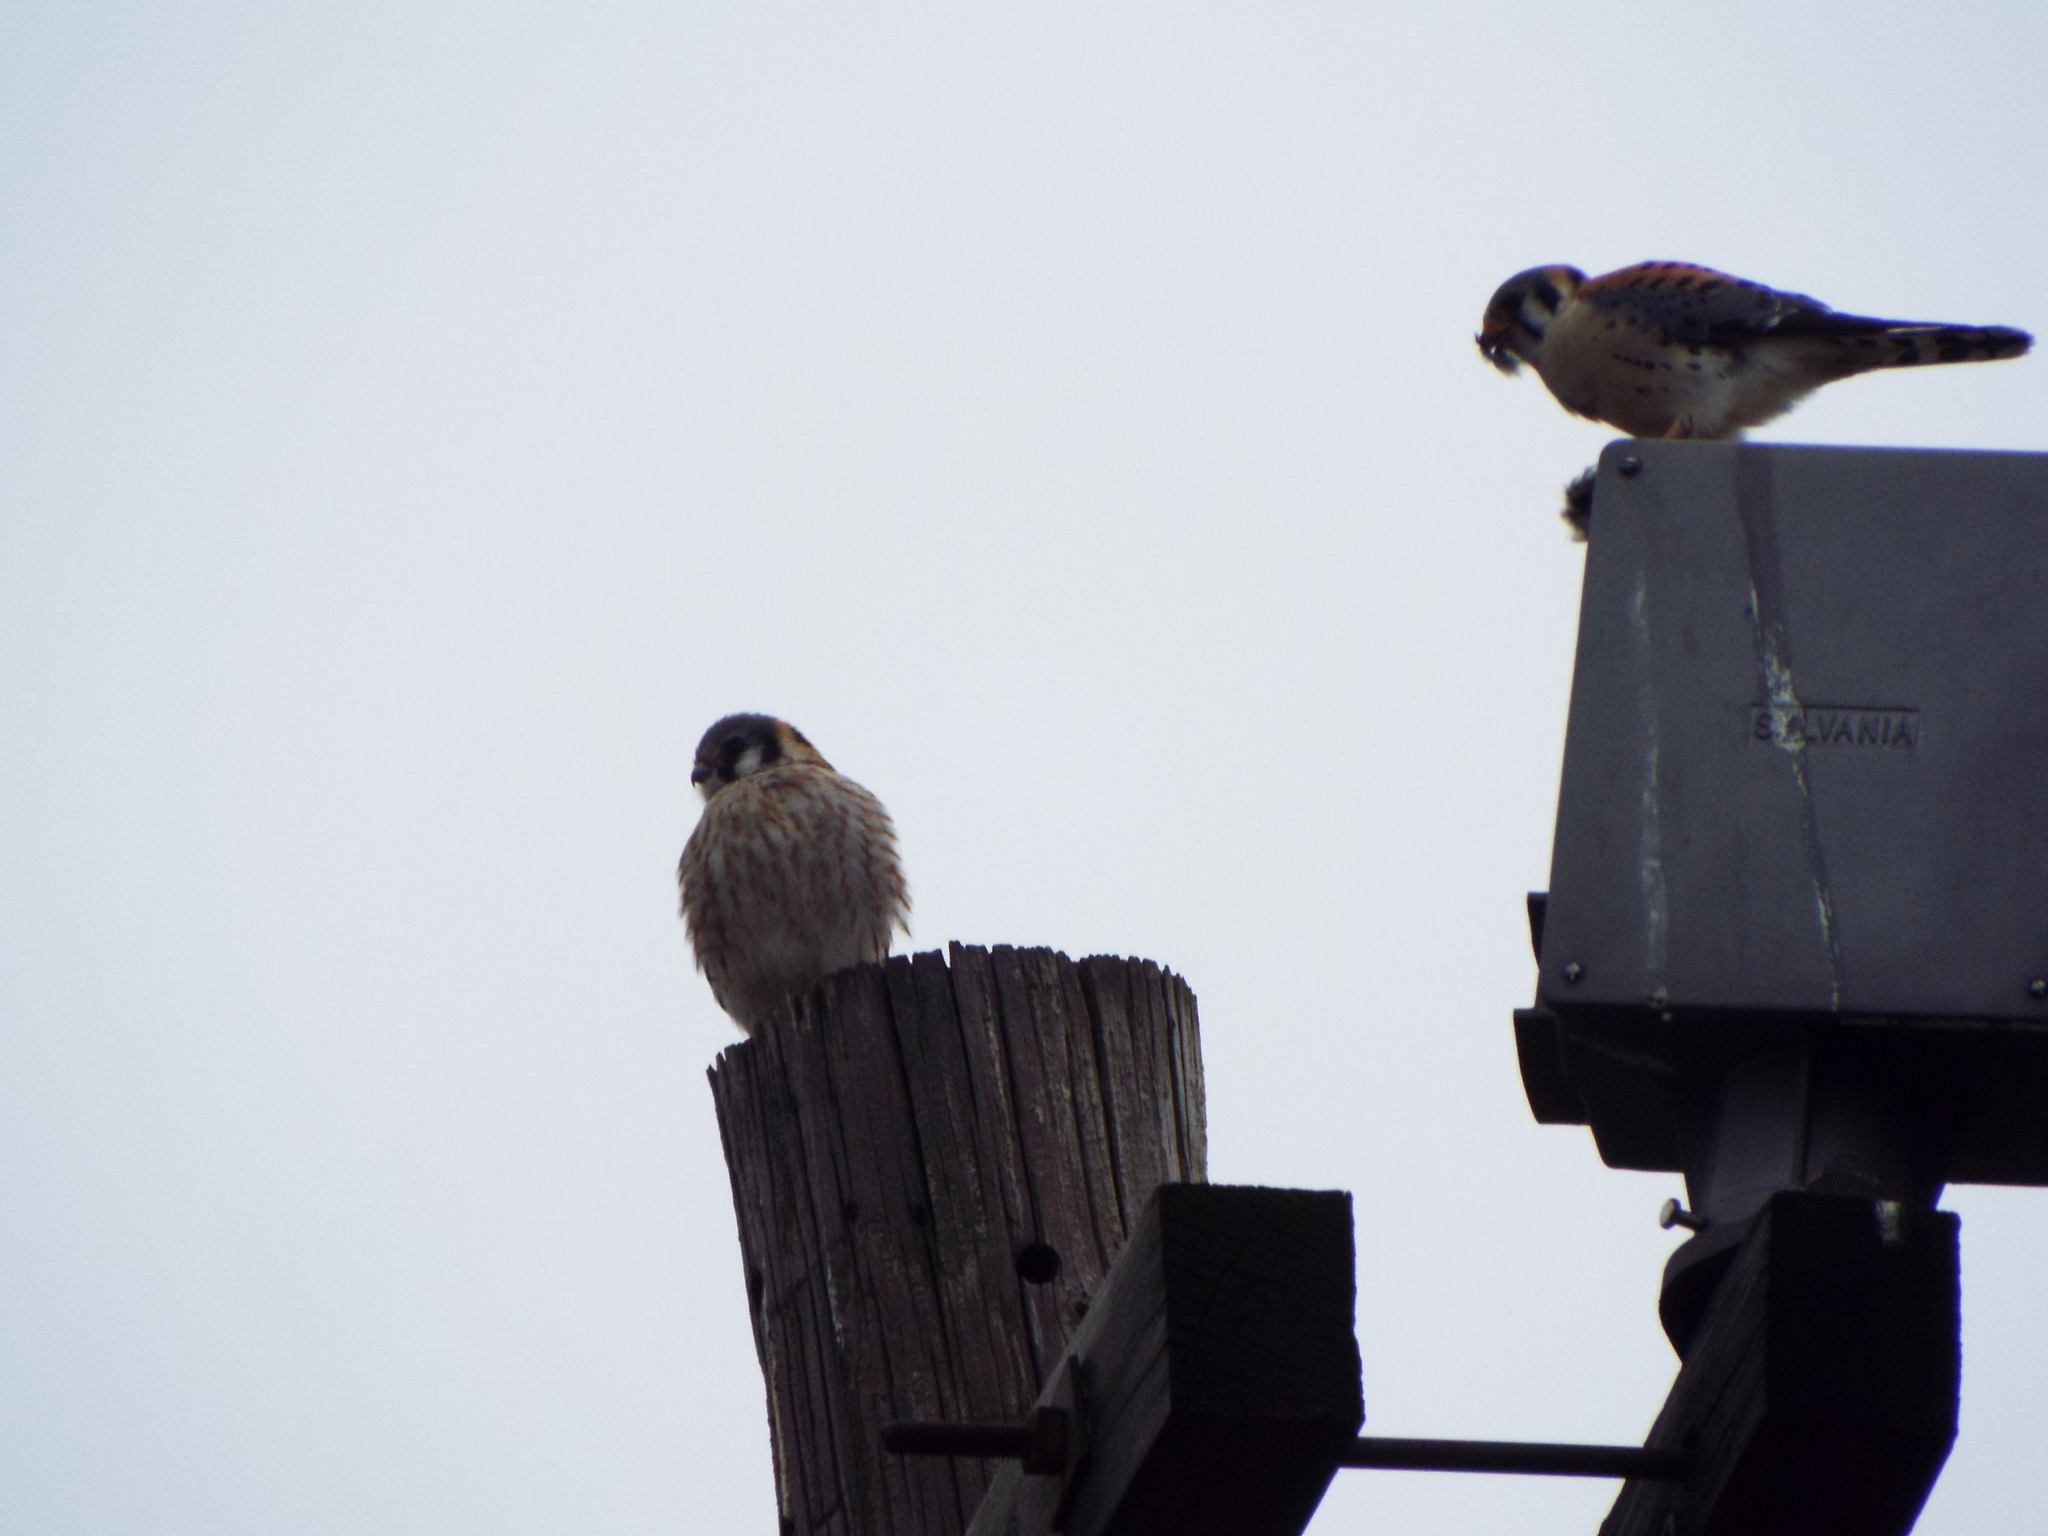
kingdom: Animalia
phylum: Chordata
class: Aves
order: Falconiformes
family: Falconidae
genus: Falco
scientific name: Falco sparverius
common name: American kestrel
